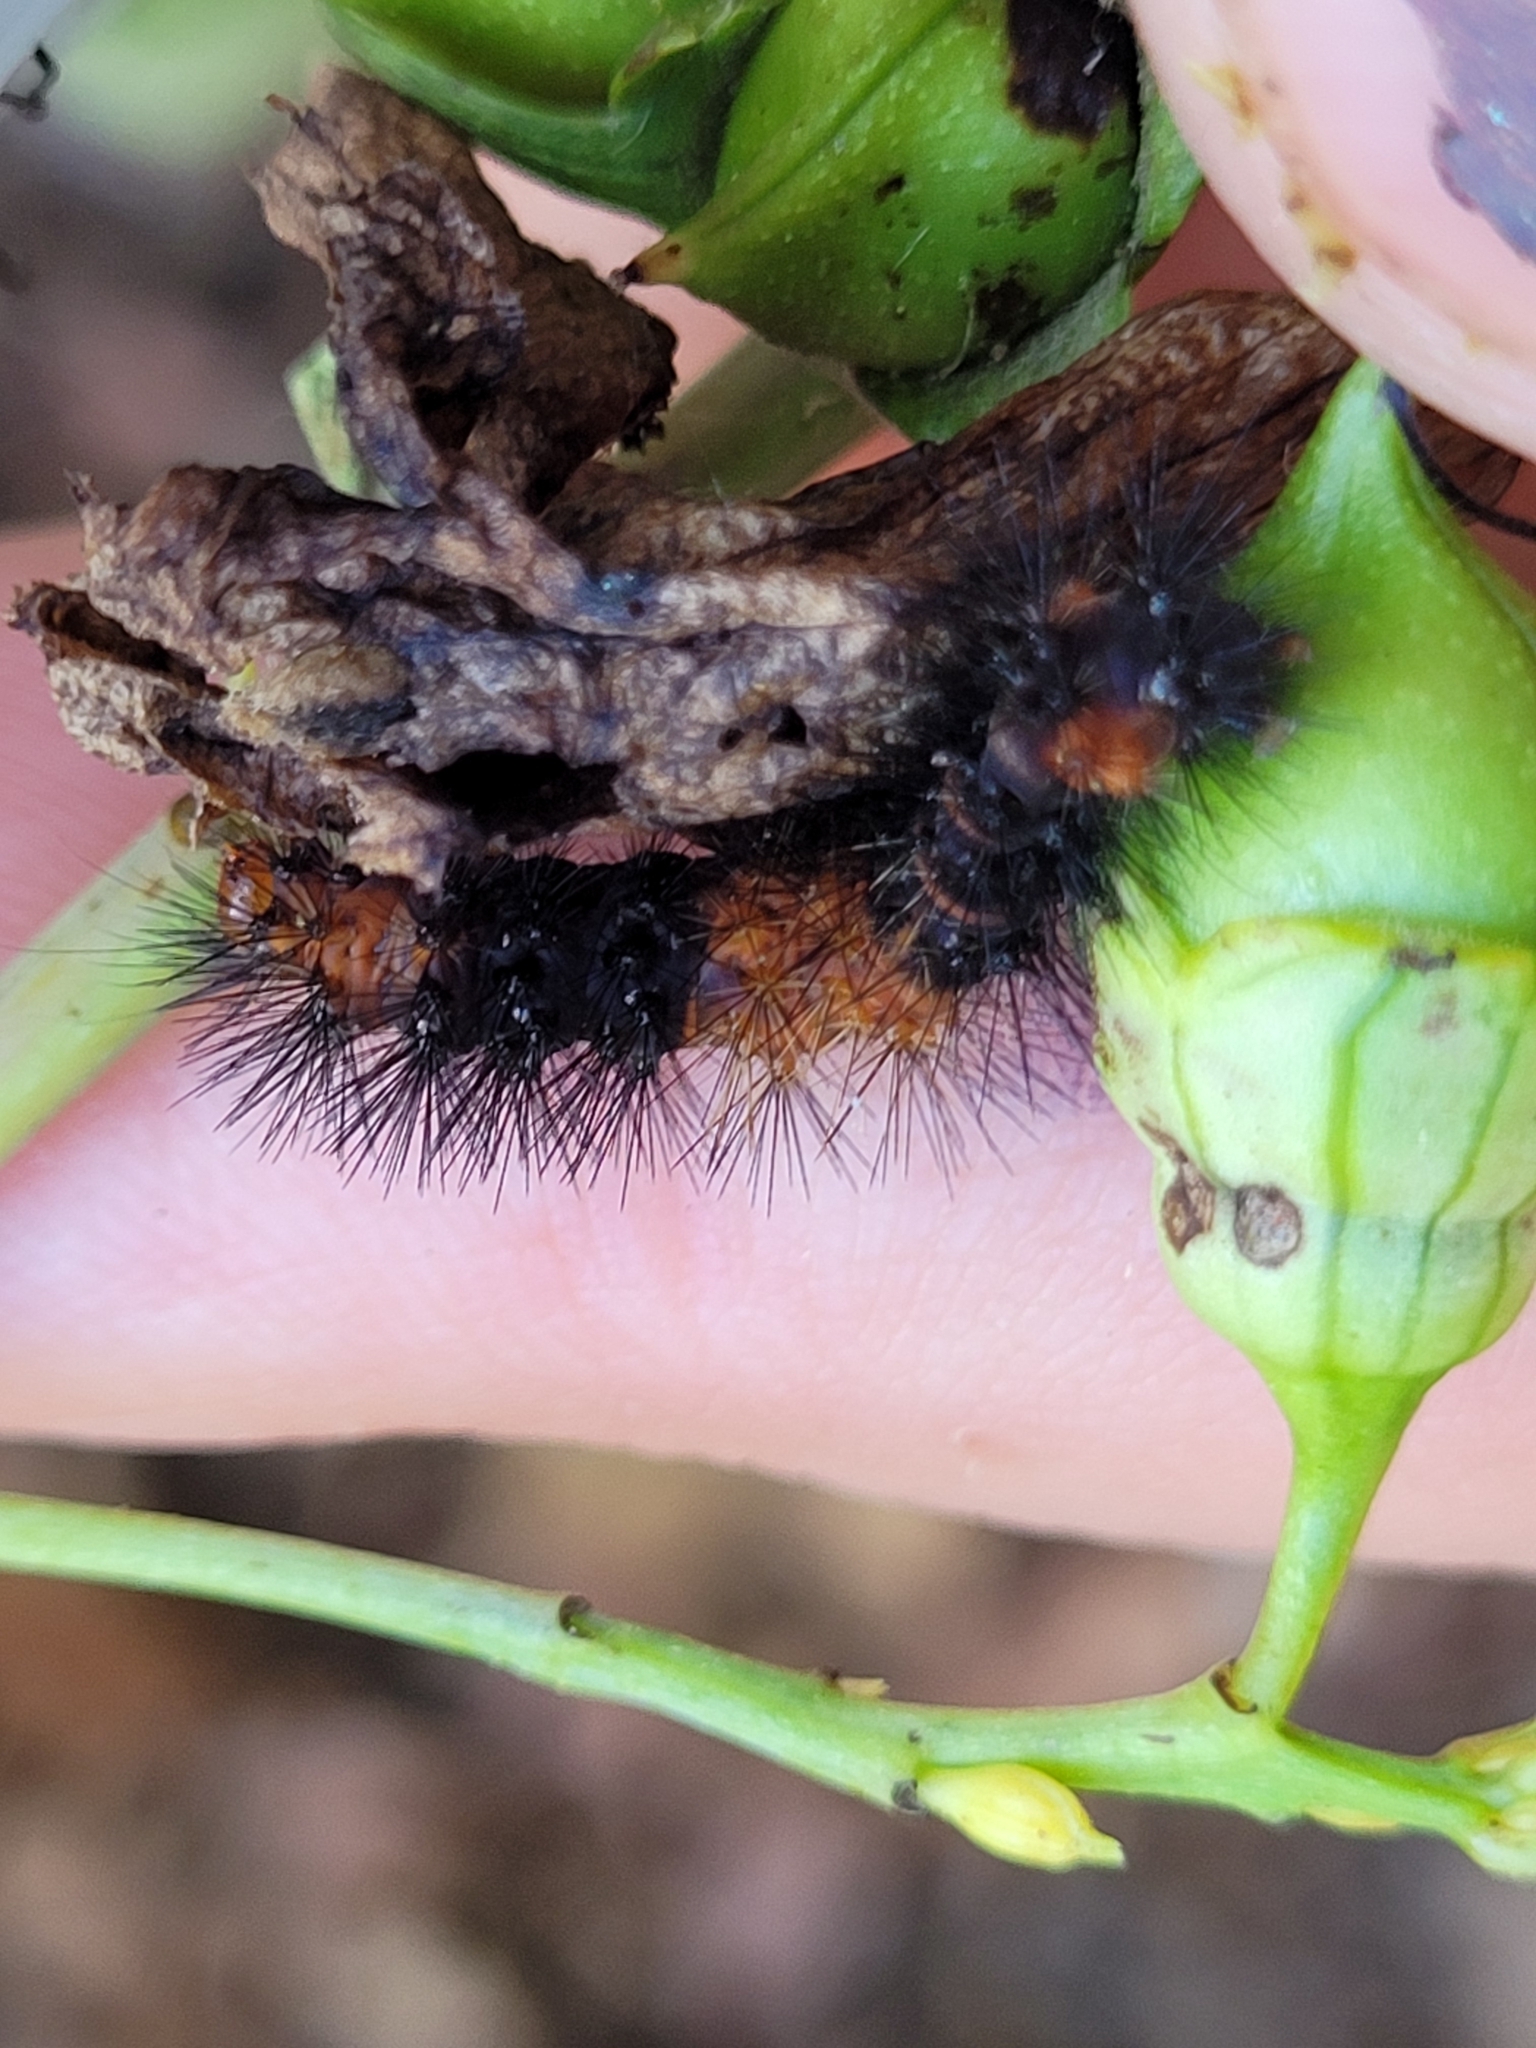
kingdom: Animalia
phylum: Arthropoda
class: Insecta
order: Lepidoptera
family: Erebidae
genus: Hypercompe
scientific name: Hypercompe scribonia
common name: Giant leopard moth
